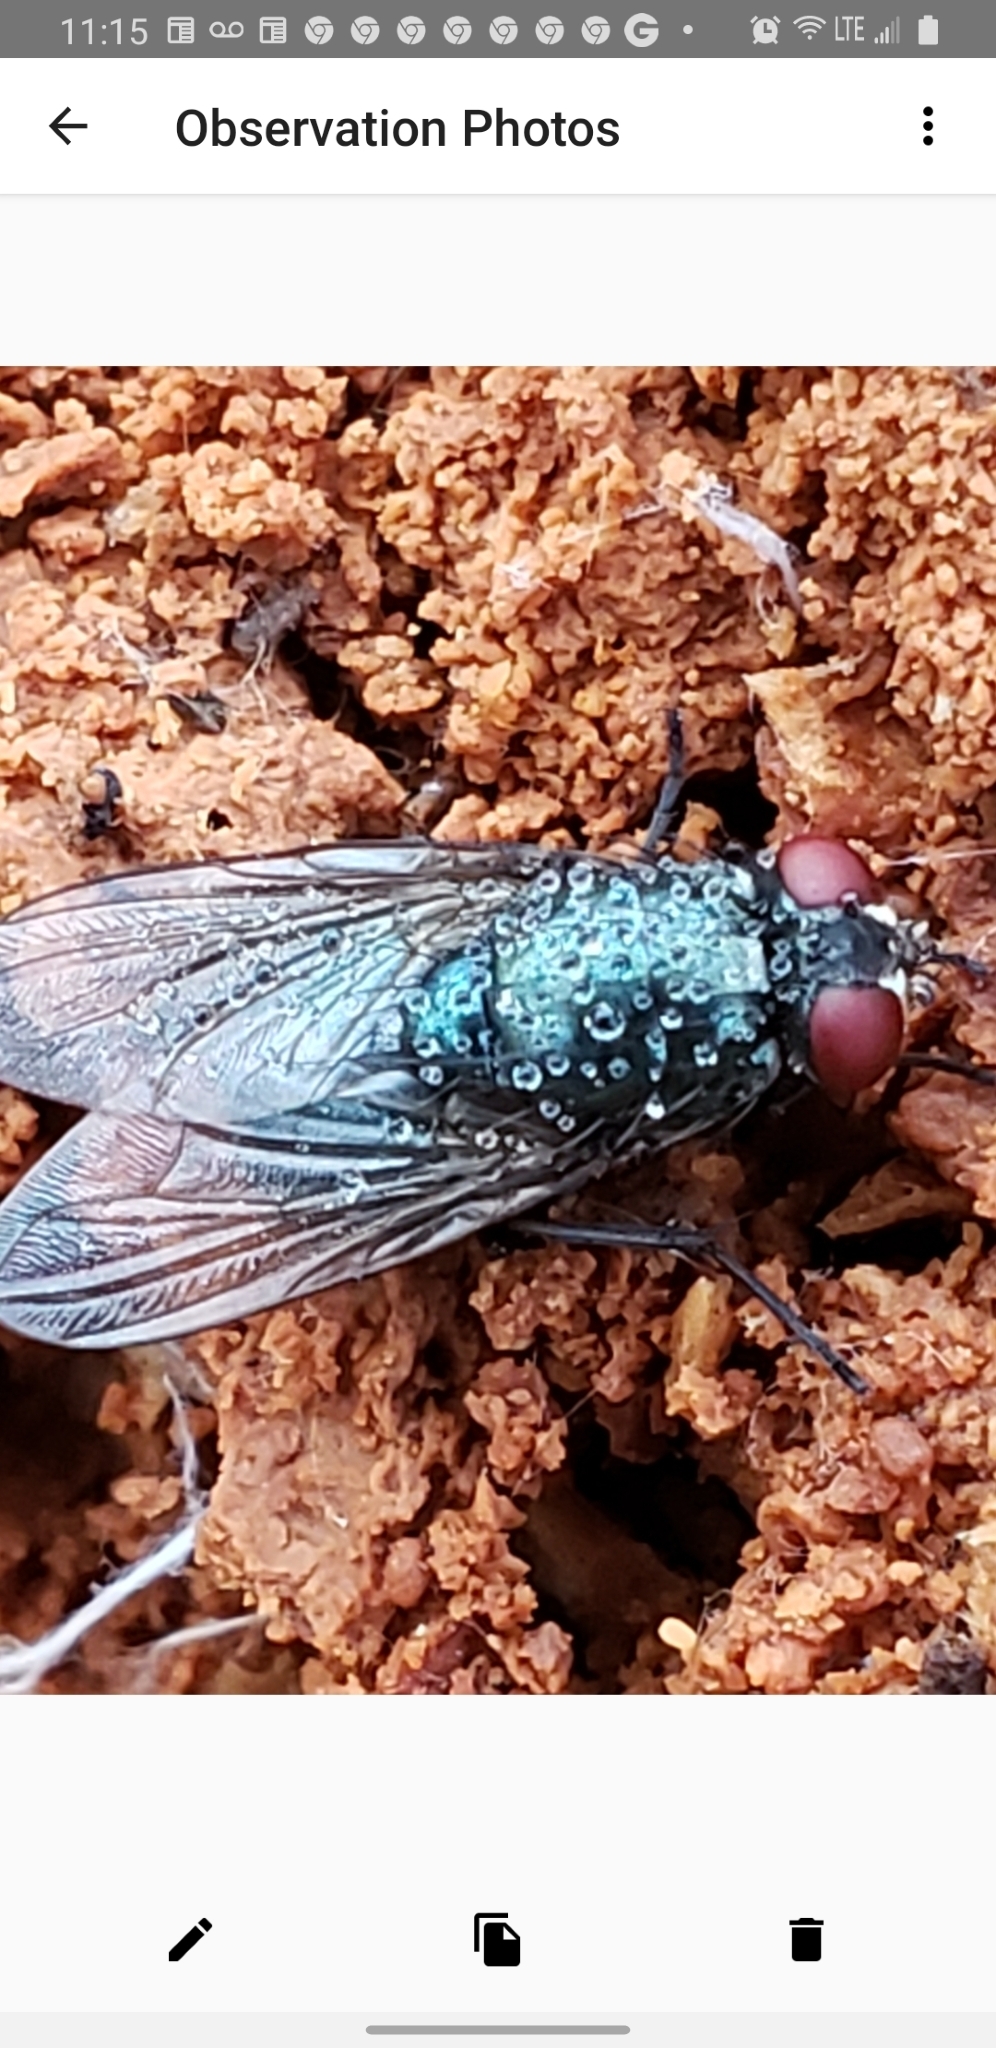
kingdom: Animalia
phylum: Arthropoda
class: Insecta
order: Diptera
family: Muscidae
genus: Eudasyphora
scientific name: Eudasyphora cyanicolor
